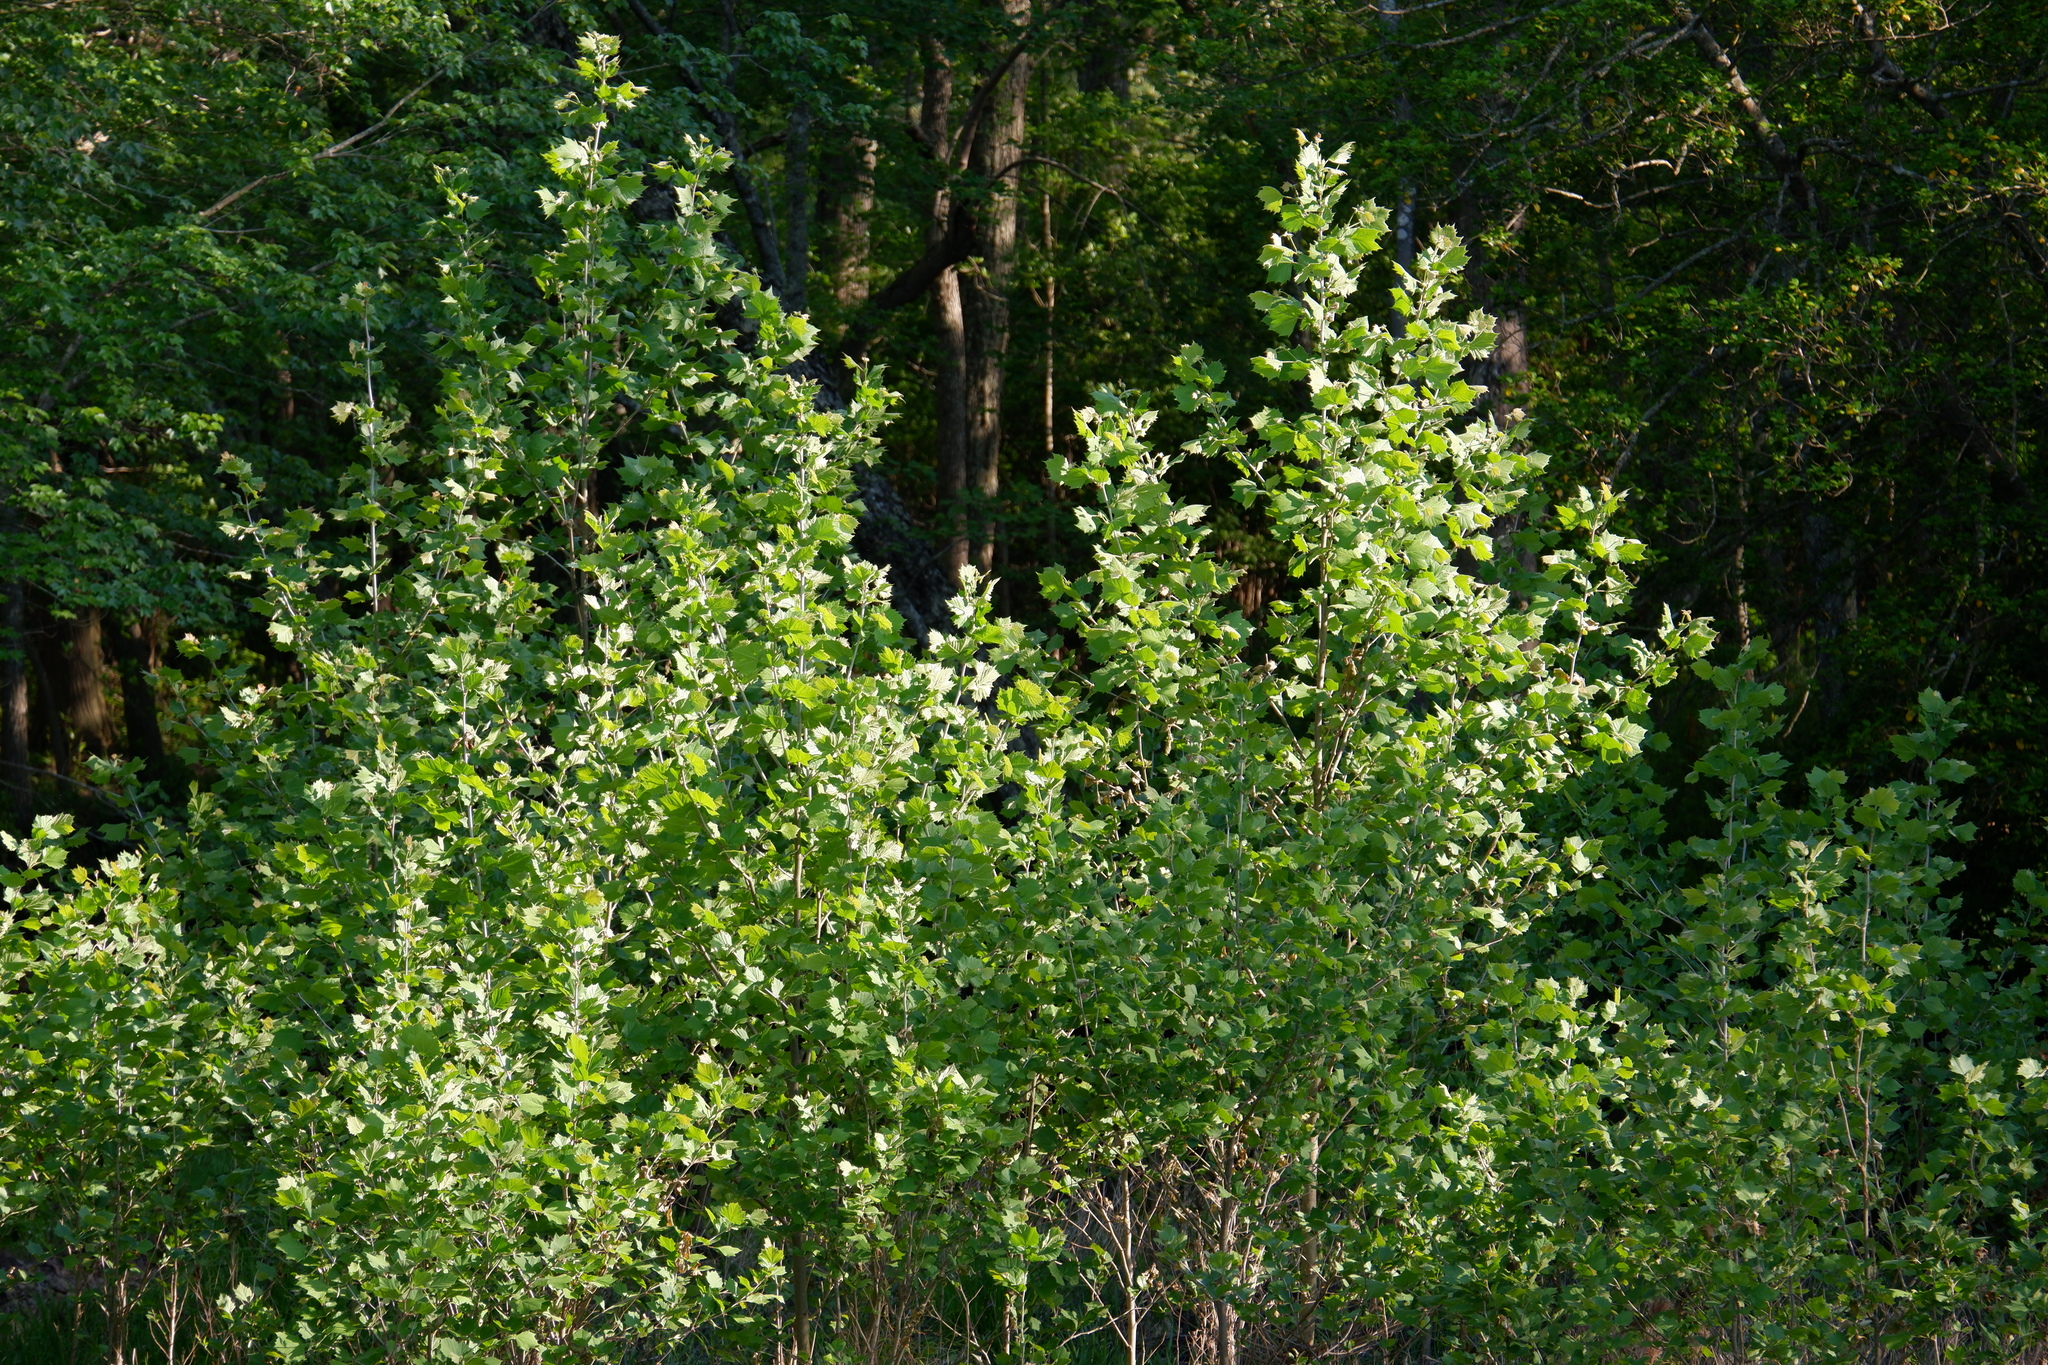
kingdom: Plantae
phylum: Tracheophyta
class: Magnoliopsida
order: Proteales
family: Platanaceae
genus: Platanus
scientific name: Platanus occidentalis
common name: American sycamore
